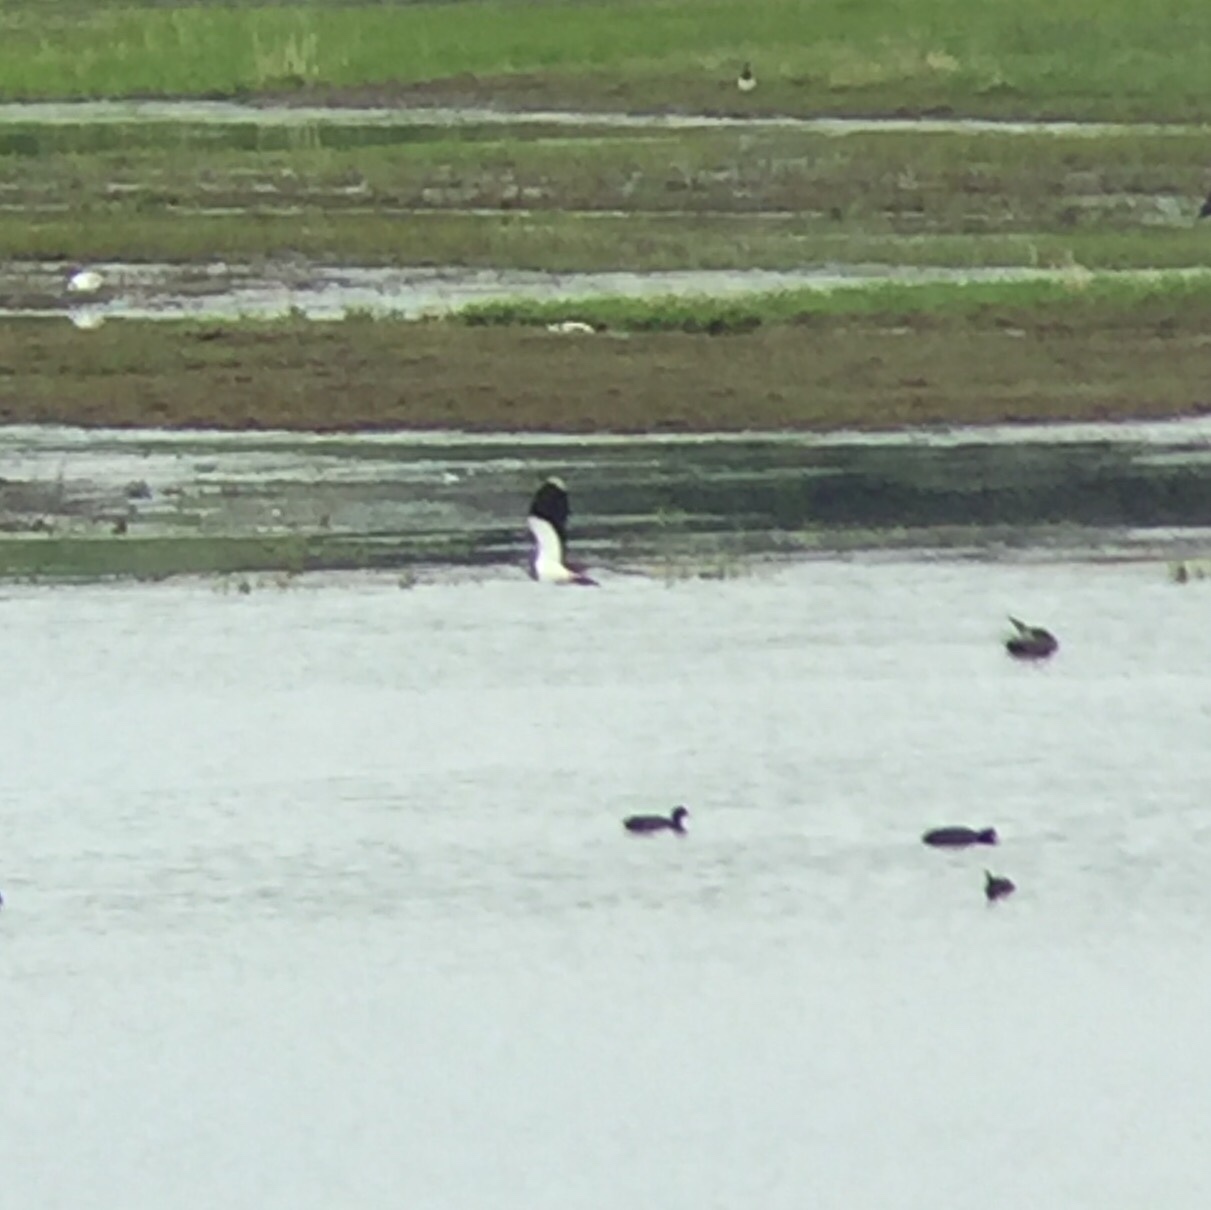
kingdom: Animalia
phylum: Chordata
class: Aves
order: Charadriiformes
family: Charadriidae
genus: Vanellus
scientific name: Vanellus vanellus
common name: Northern lapwing
